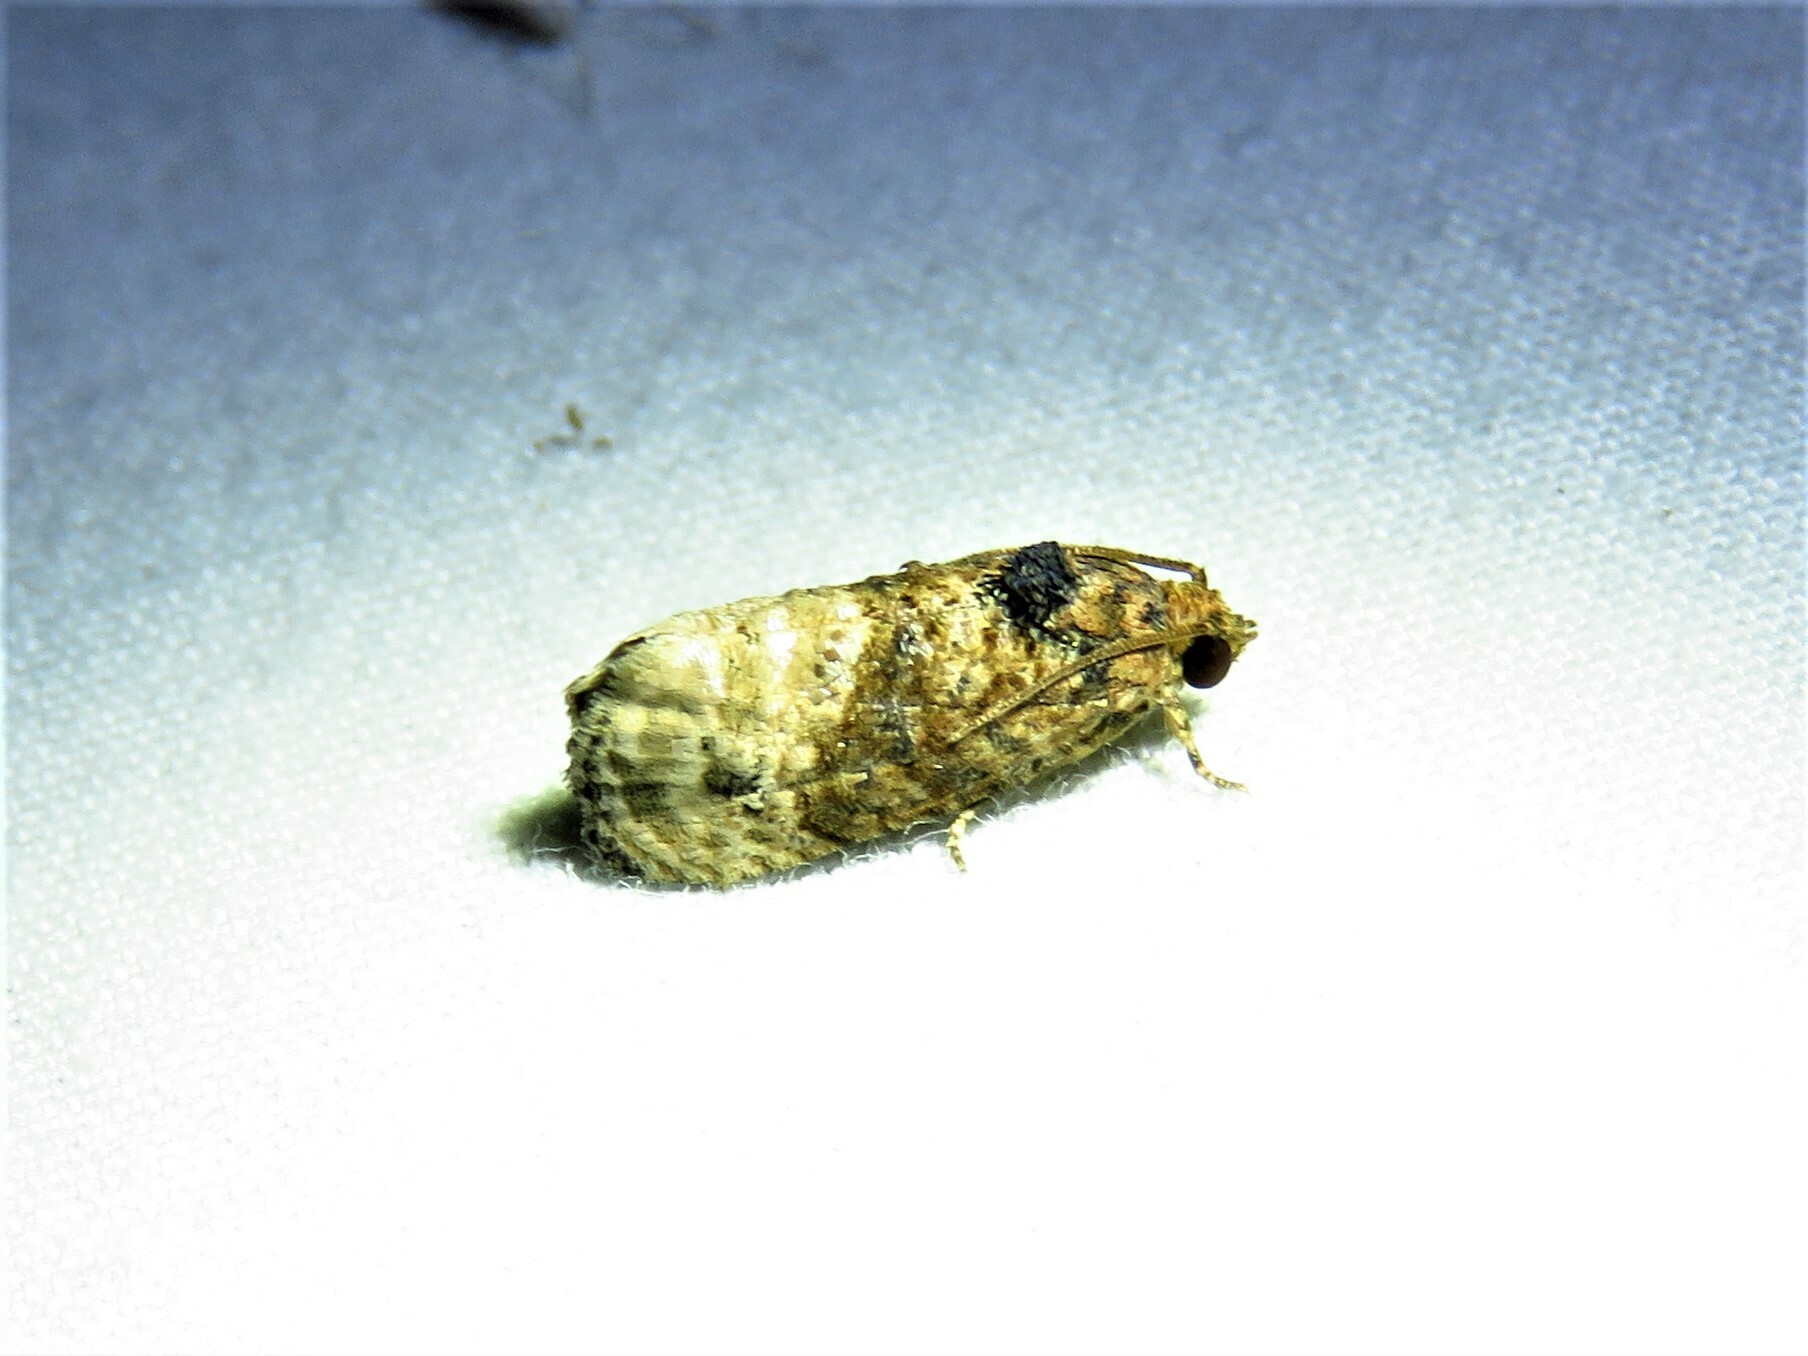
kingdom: Animalia
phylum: Arthropoda
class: Insecta
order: Lepidoptera
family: Tortricidae
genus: Ecdytolopha
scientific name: Ecdytolopha mana
